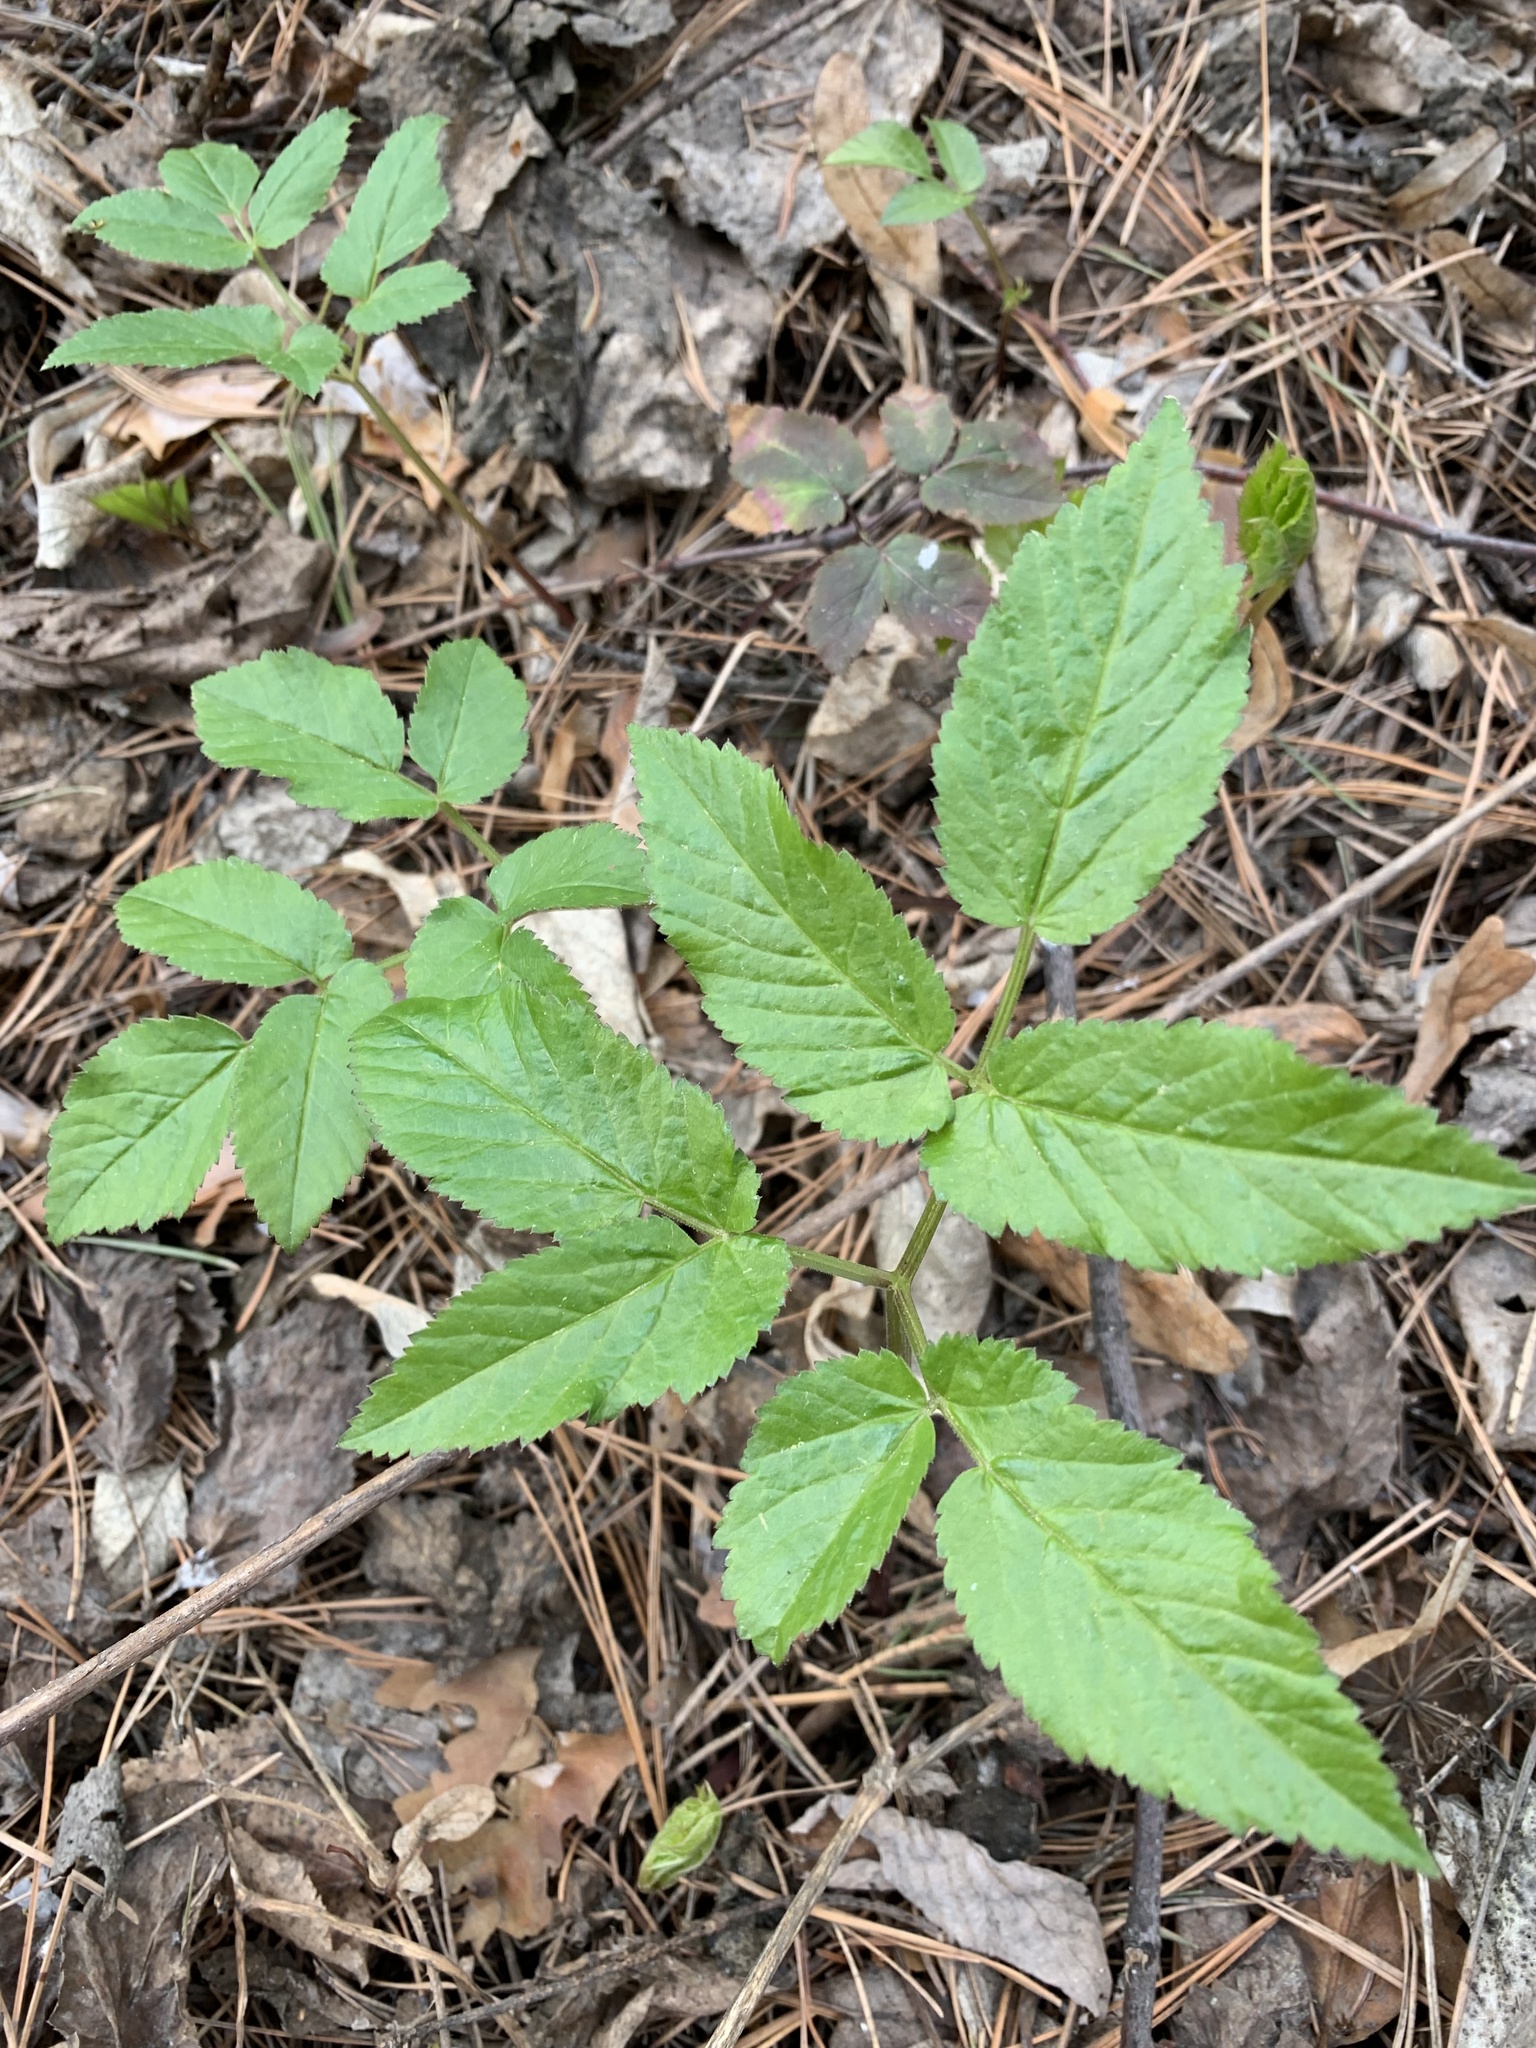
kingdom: Plantae
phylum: Tracheophyta
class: Magnoliopsida
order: Apiales
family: Apiaceae
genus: Aegopodium
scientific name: Aegopodium podagraria
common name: Ground-elder
